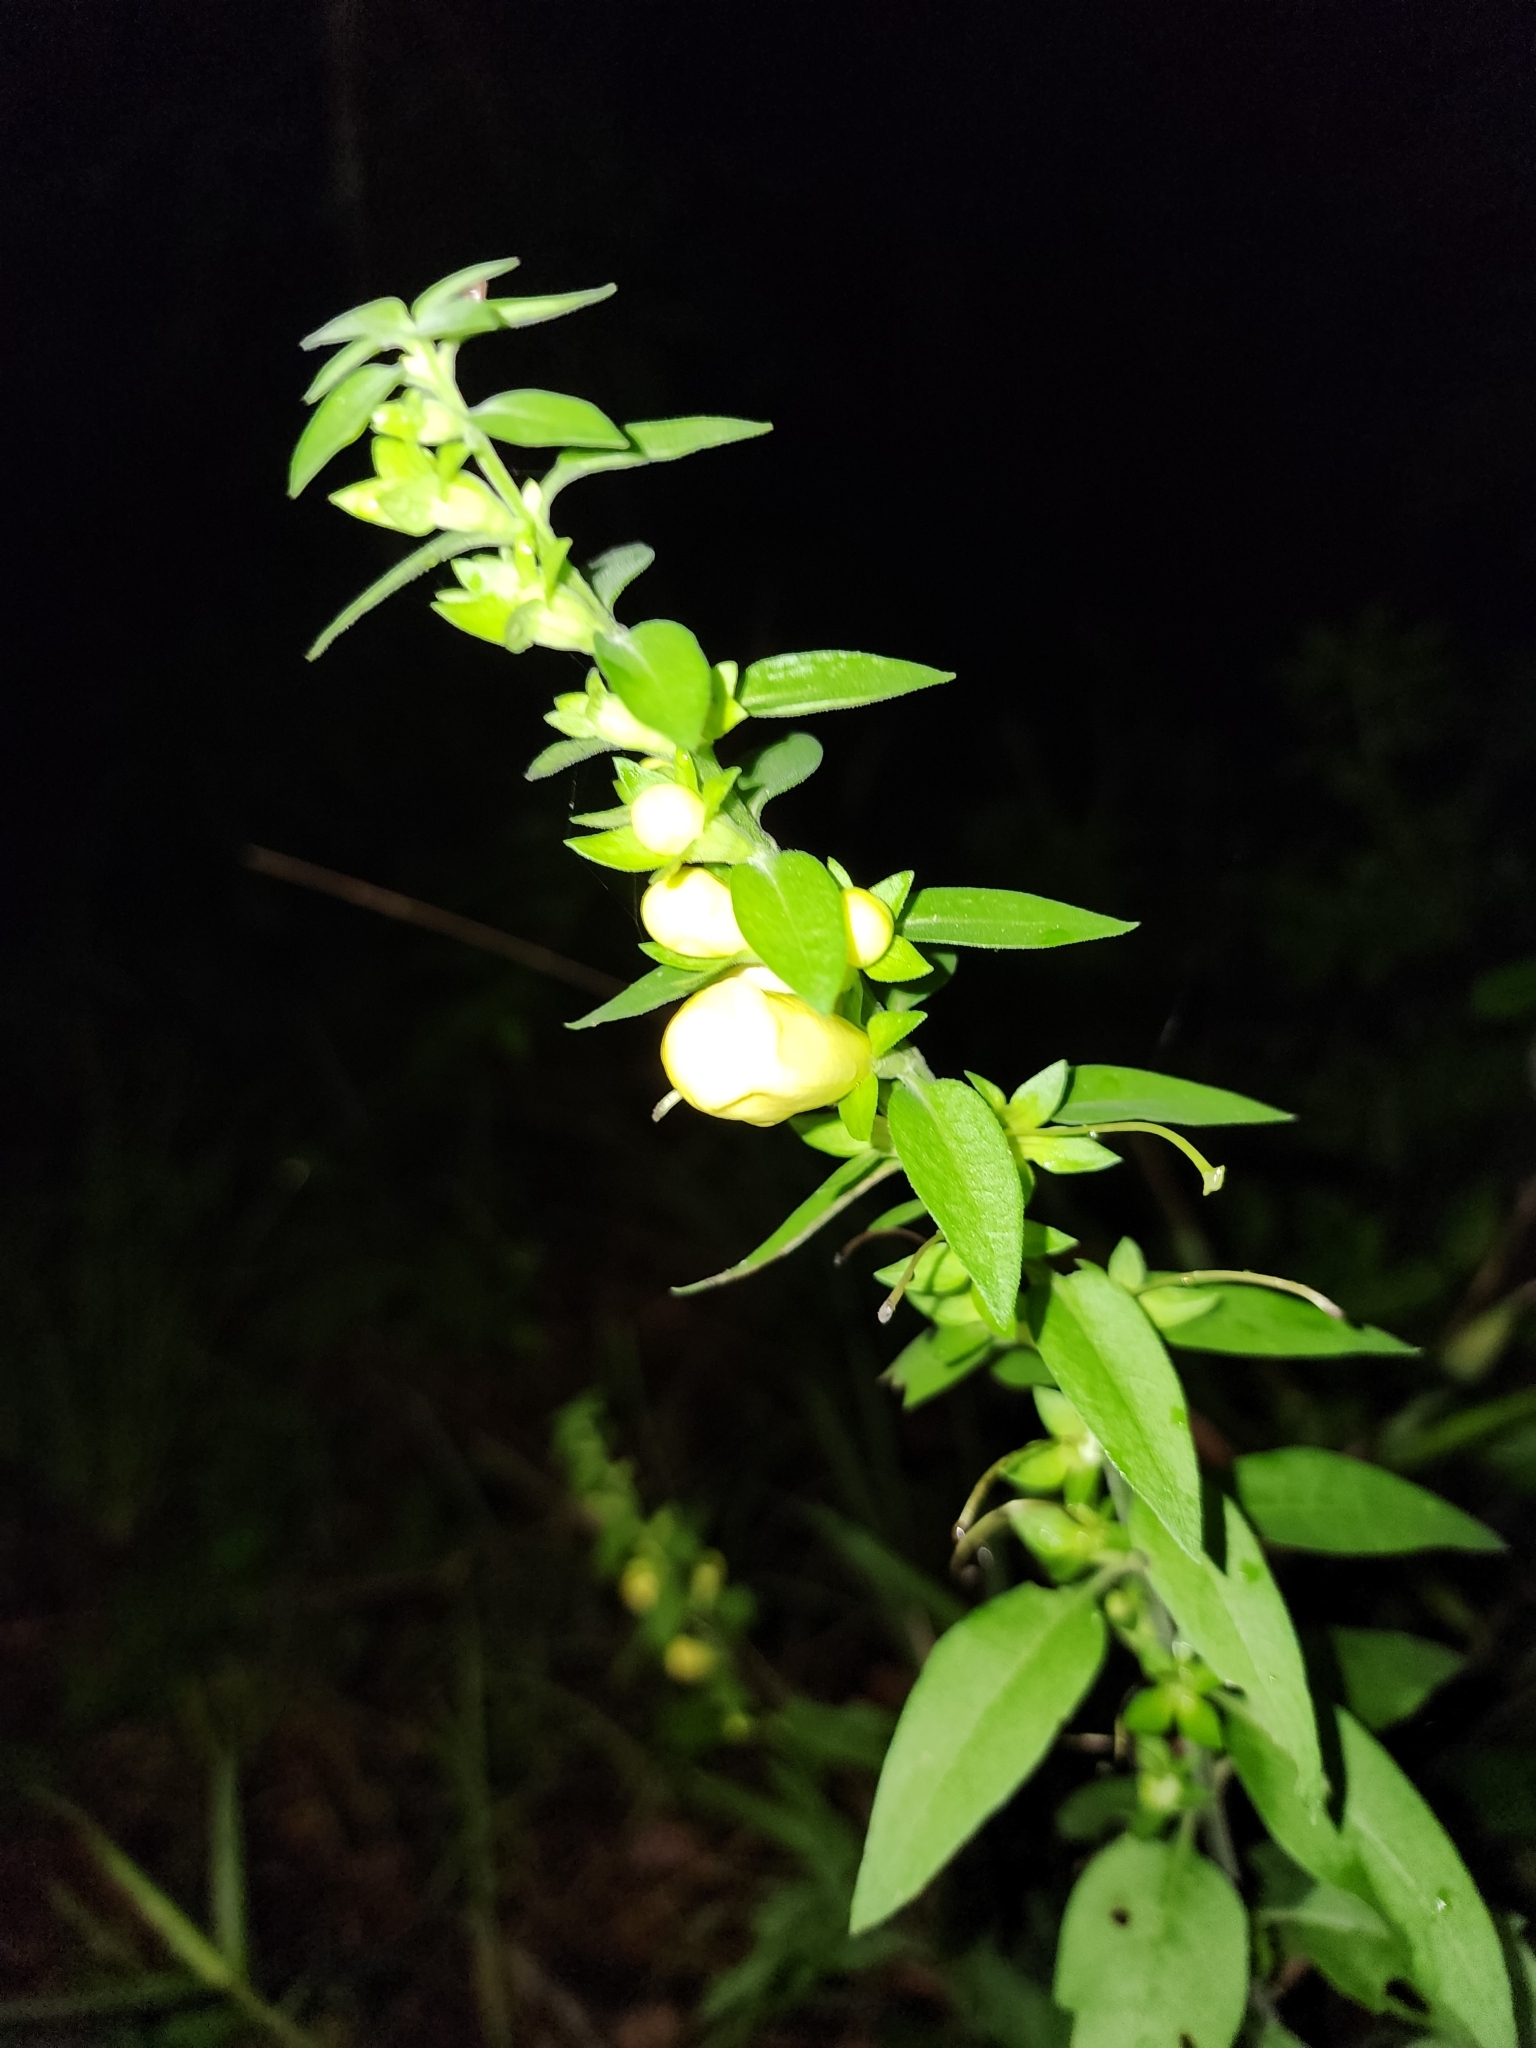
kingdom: Plantae
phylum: Tracheophyta
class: Magnoliopsida
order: Lamiales
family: Orobanchaceae
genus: Aureolaria
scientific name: Aureolaria virginica
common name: Downy false foxglove
